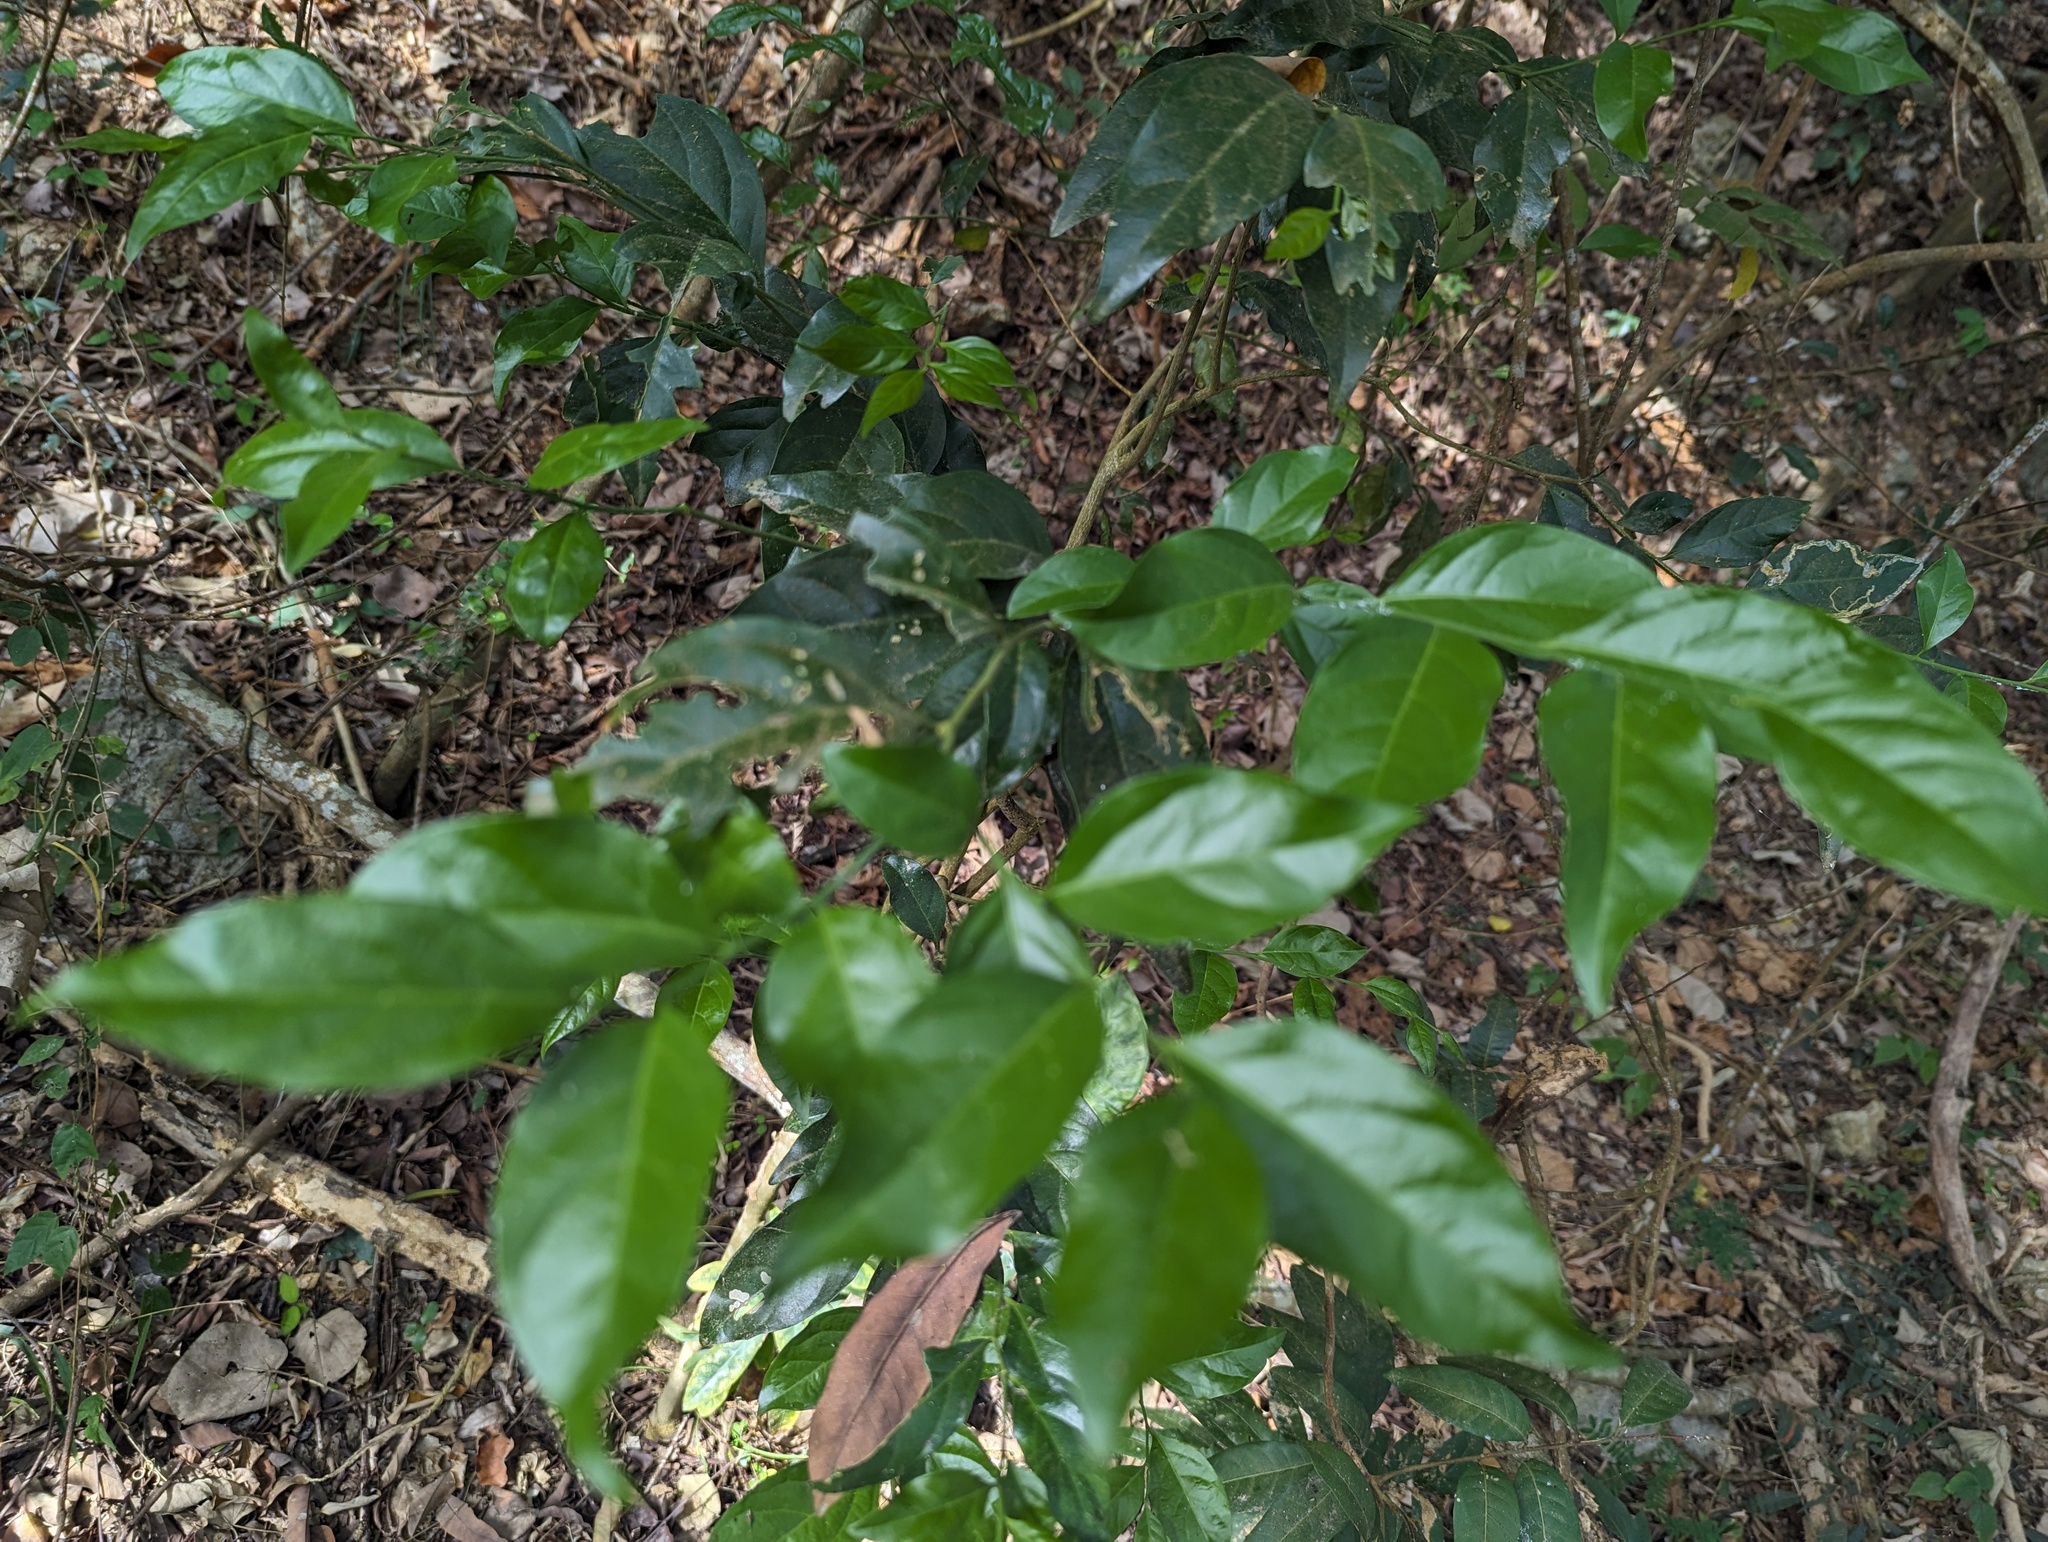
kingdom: Plantae
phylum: Tracheophyta
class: Magnoliopsida
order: Santalales
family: Opiliaceae
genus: Champereia
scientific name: Champereia manillana
